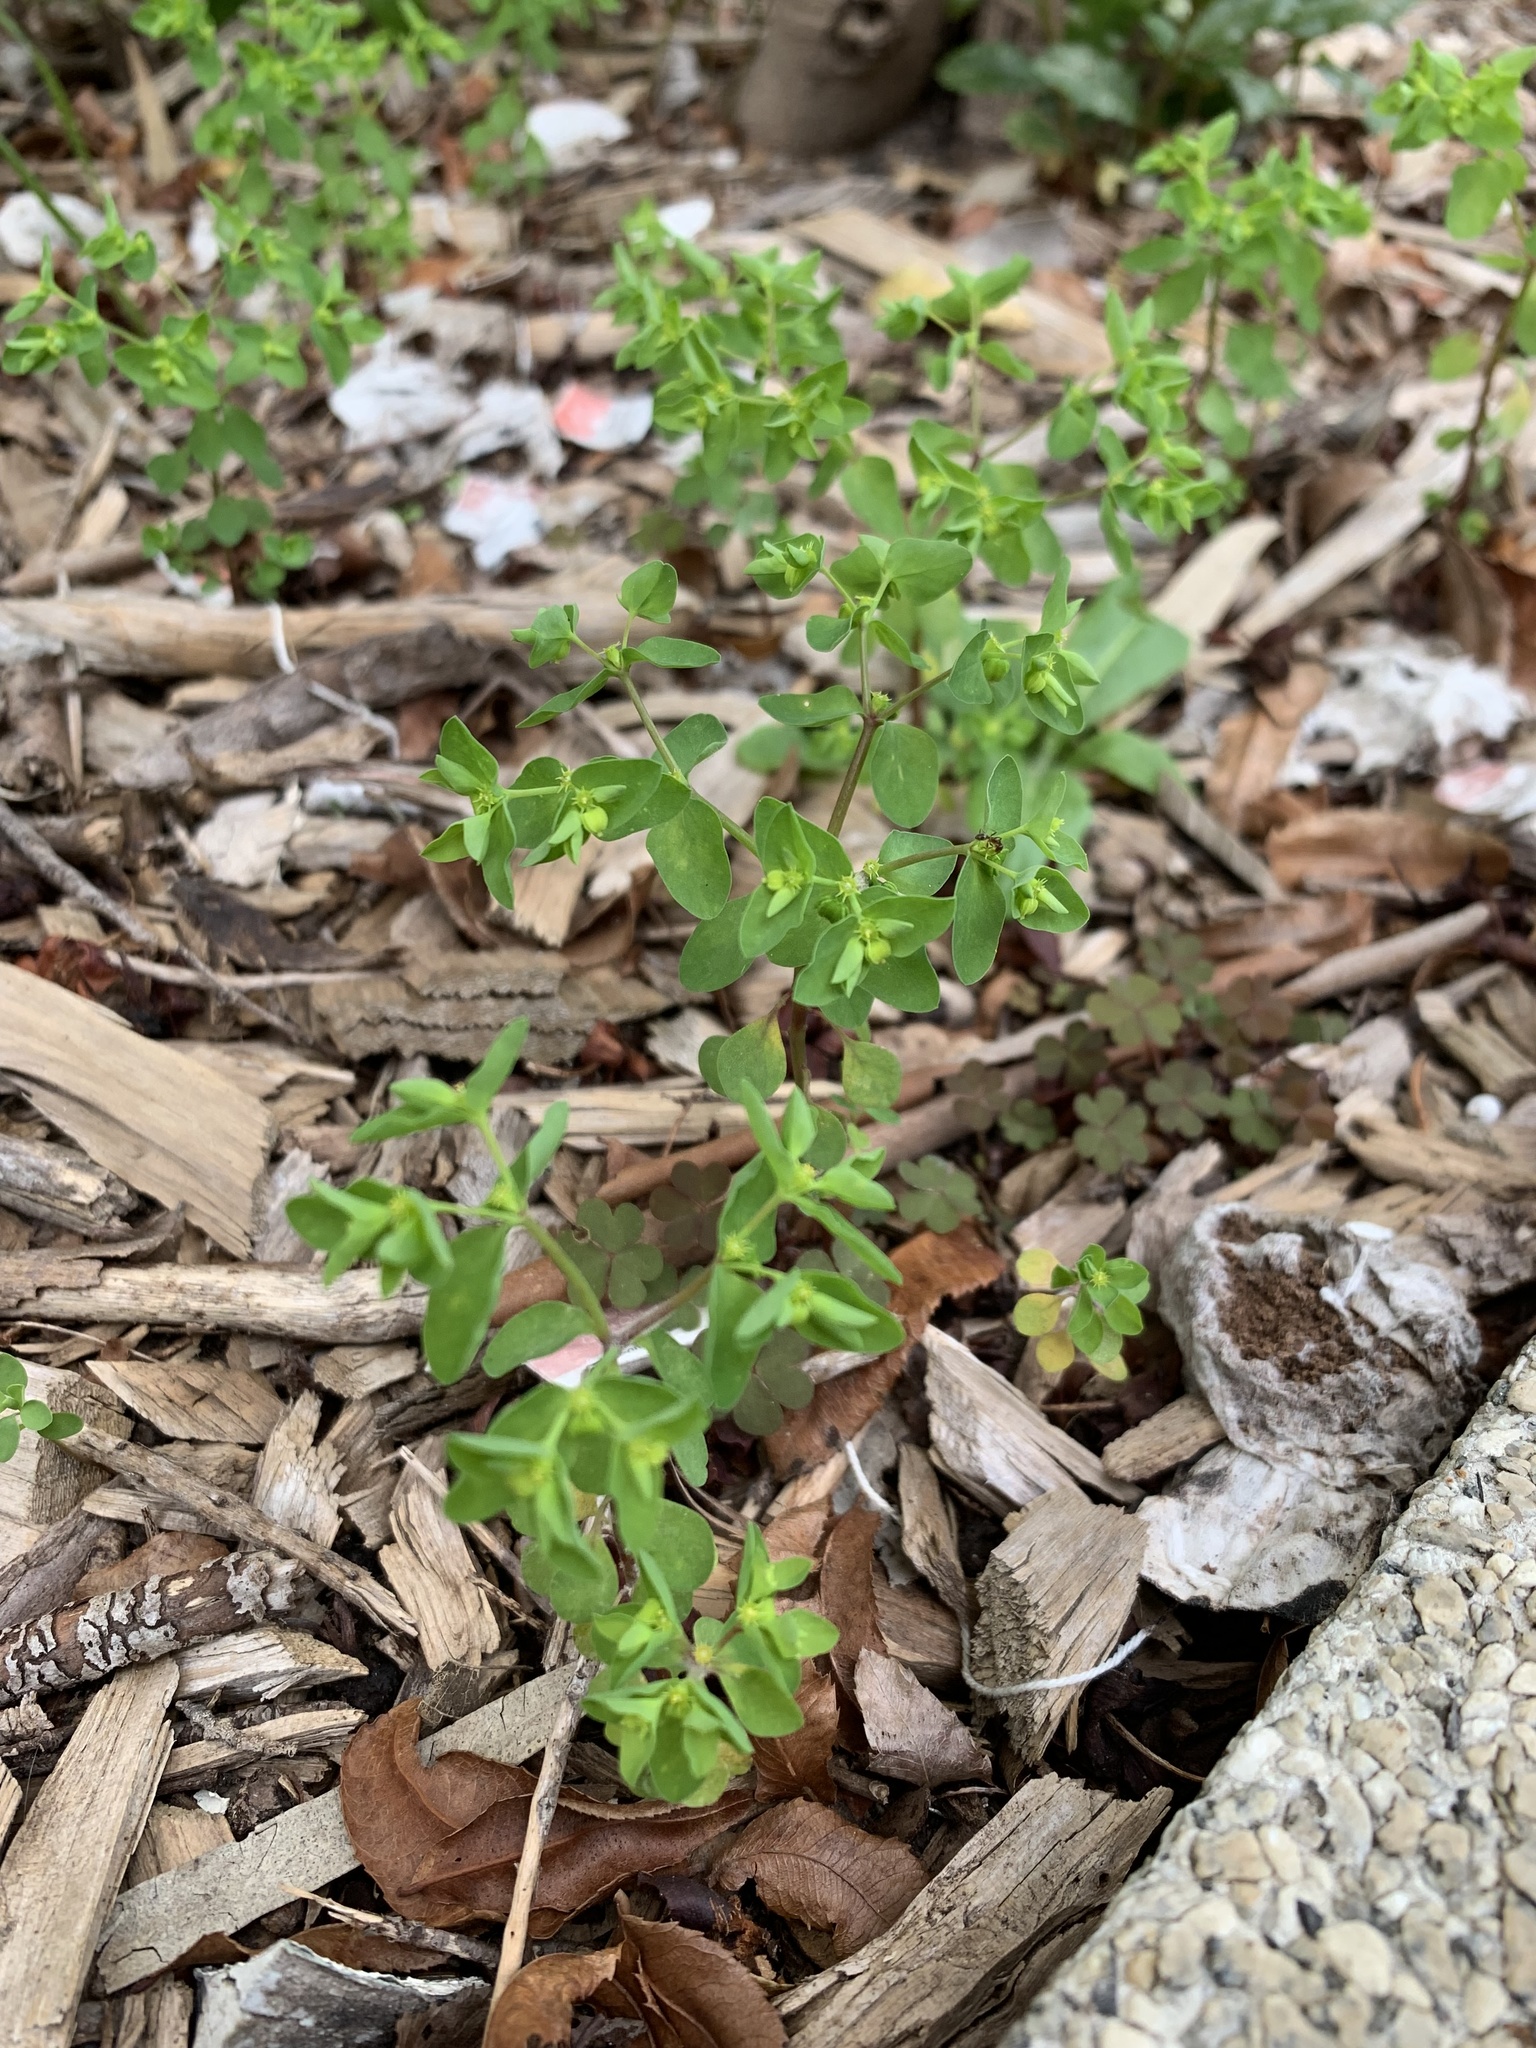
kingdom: Plantae
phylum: Tracheophyta
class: Magnoliopsida
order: Malpighiales
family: Euphorbiaceae
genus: Euphorbia
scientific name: Euphorbia peplus
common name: Petty spurge
